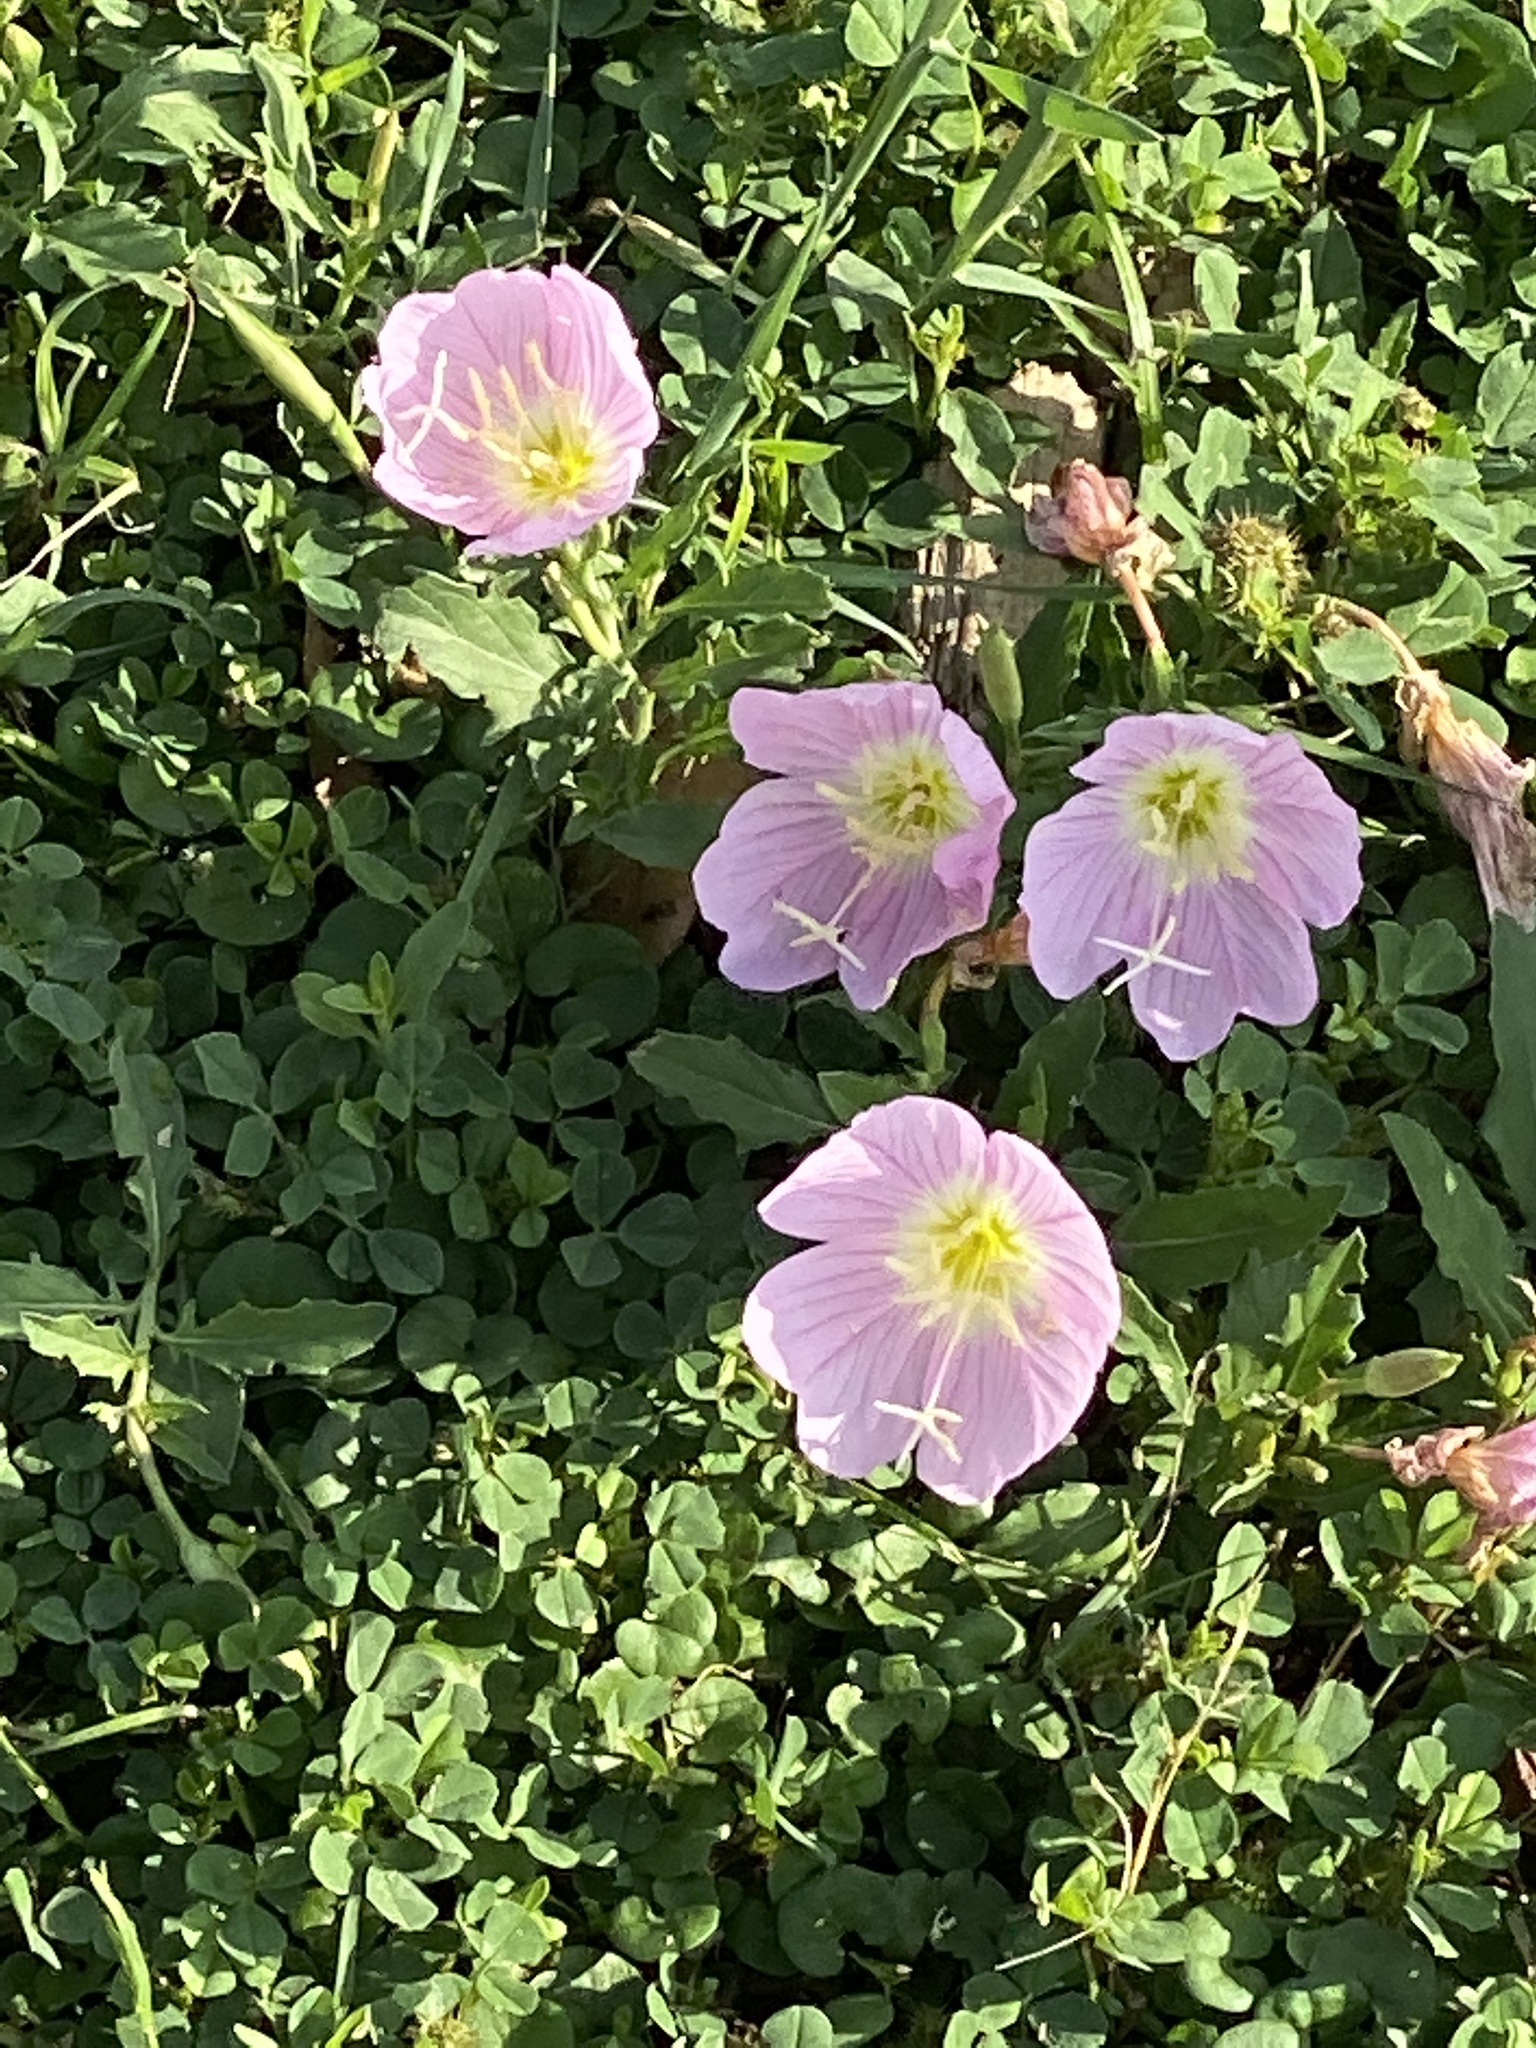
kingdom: Plantae
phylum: Tracheophyta
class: Magnoliopsida
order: Myrtales
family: Onagraceae
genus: Oenothera
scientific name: Oenothera speciosa
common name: White evening-primrose
